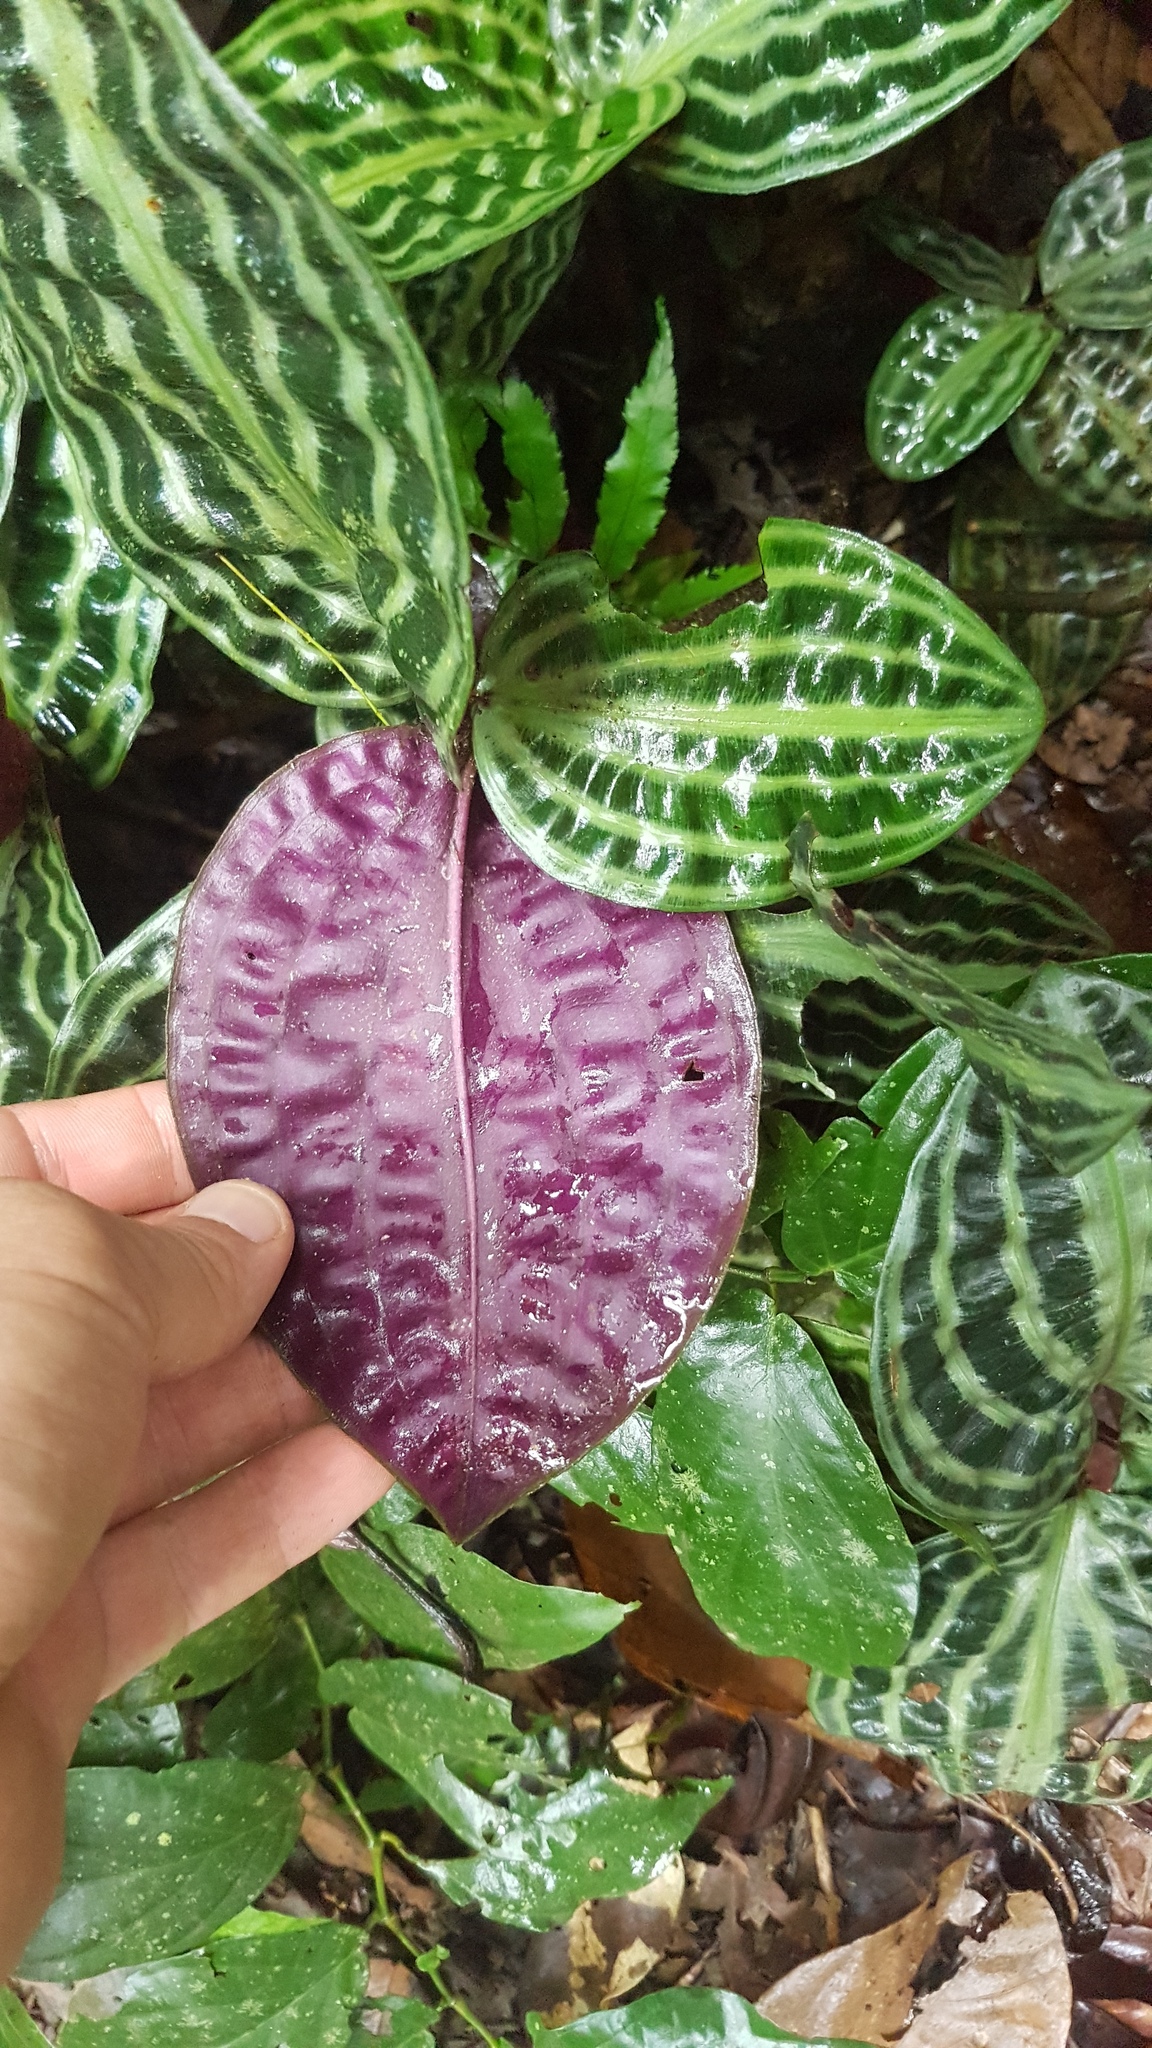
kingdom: Plantae
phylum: Tracheophyta
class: Liliopsida
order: Commelinales
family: Commelinaceae
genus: Geogenanthus
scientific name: Geogenanthus poeppigii
